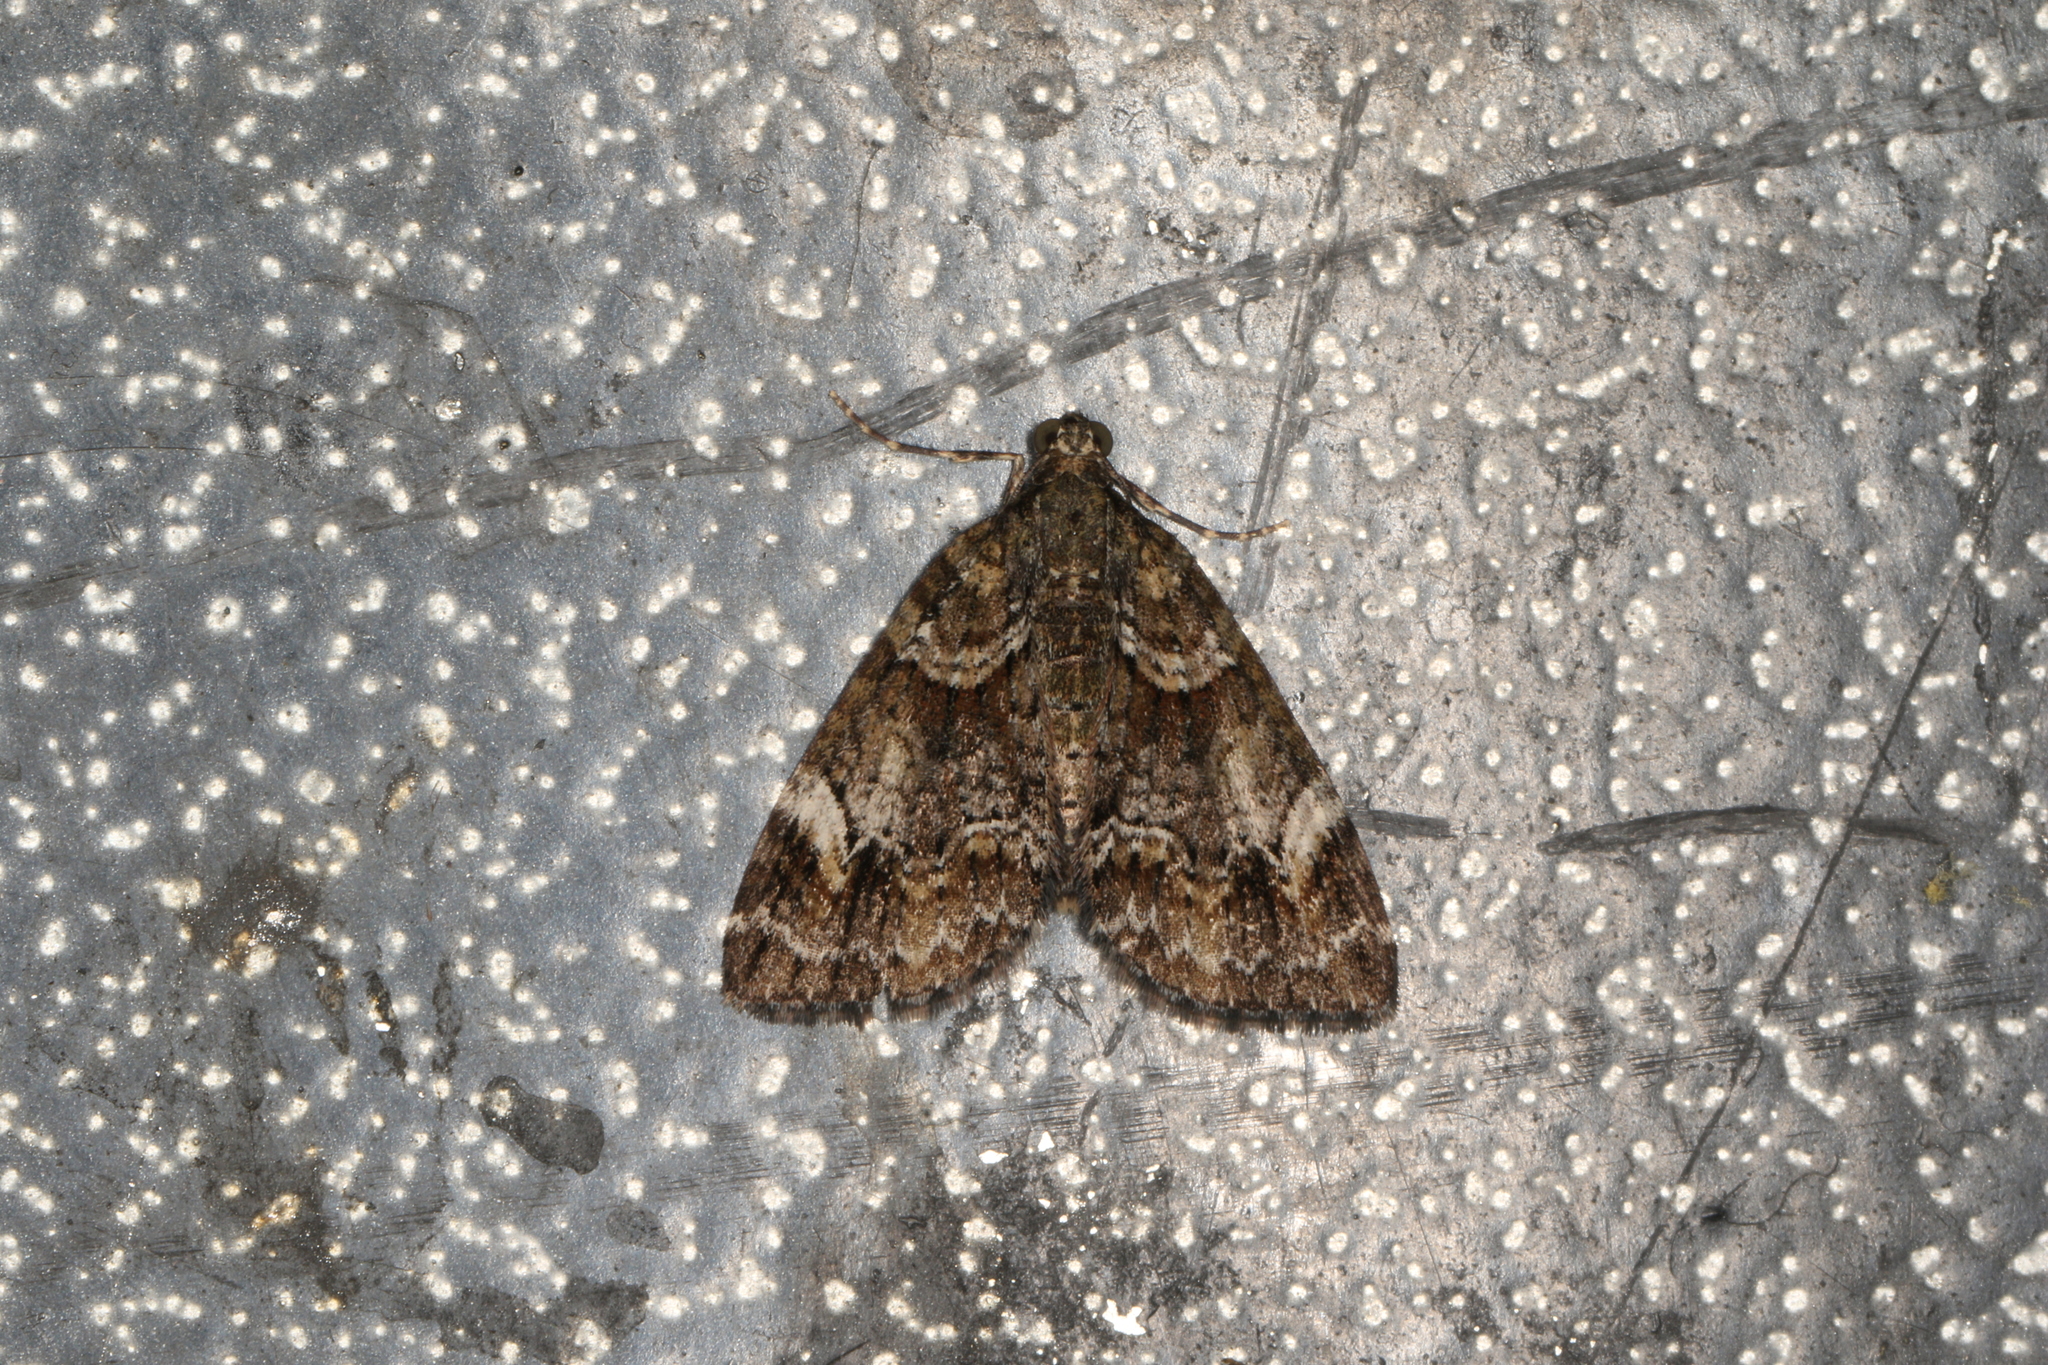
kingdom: Animalia
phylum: Arthropoda
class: Insecta
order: Lepidoptera
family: Geometridae
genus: Microdes
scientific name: Microdes diplodonta
